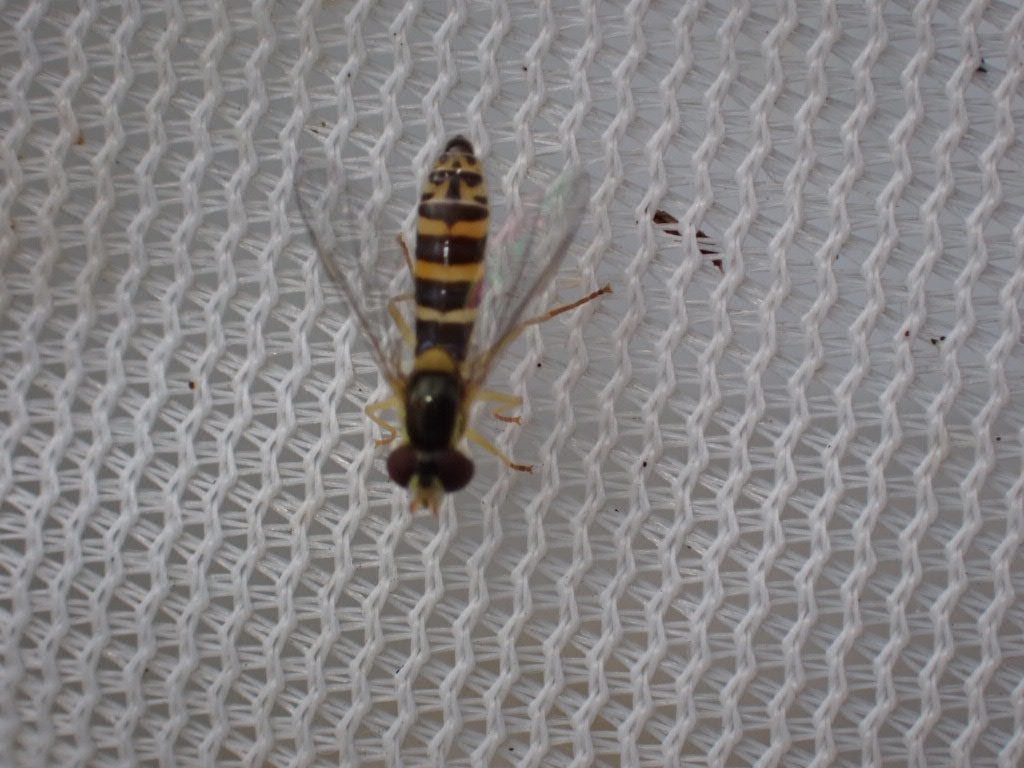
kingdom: Animalia
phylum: Arthropoda
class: Insecta
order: Diptera
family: Syrphidae
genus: Sphaerophoria
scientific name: Sphaerophoria
